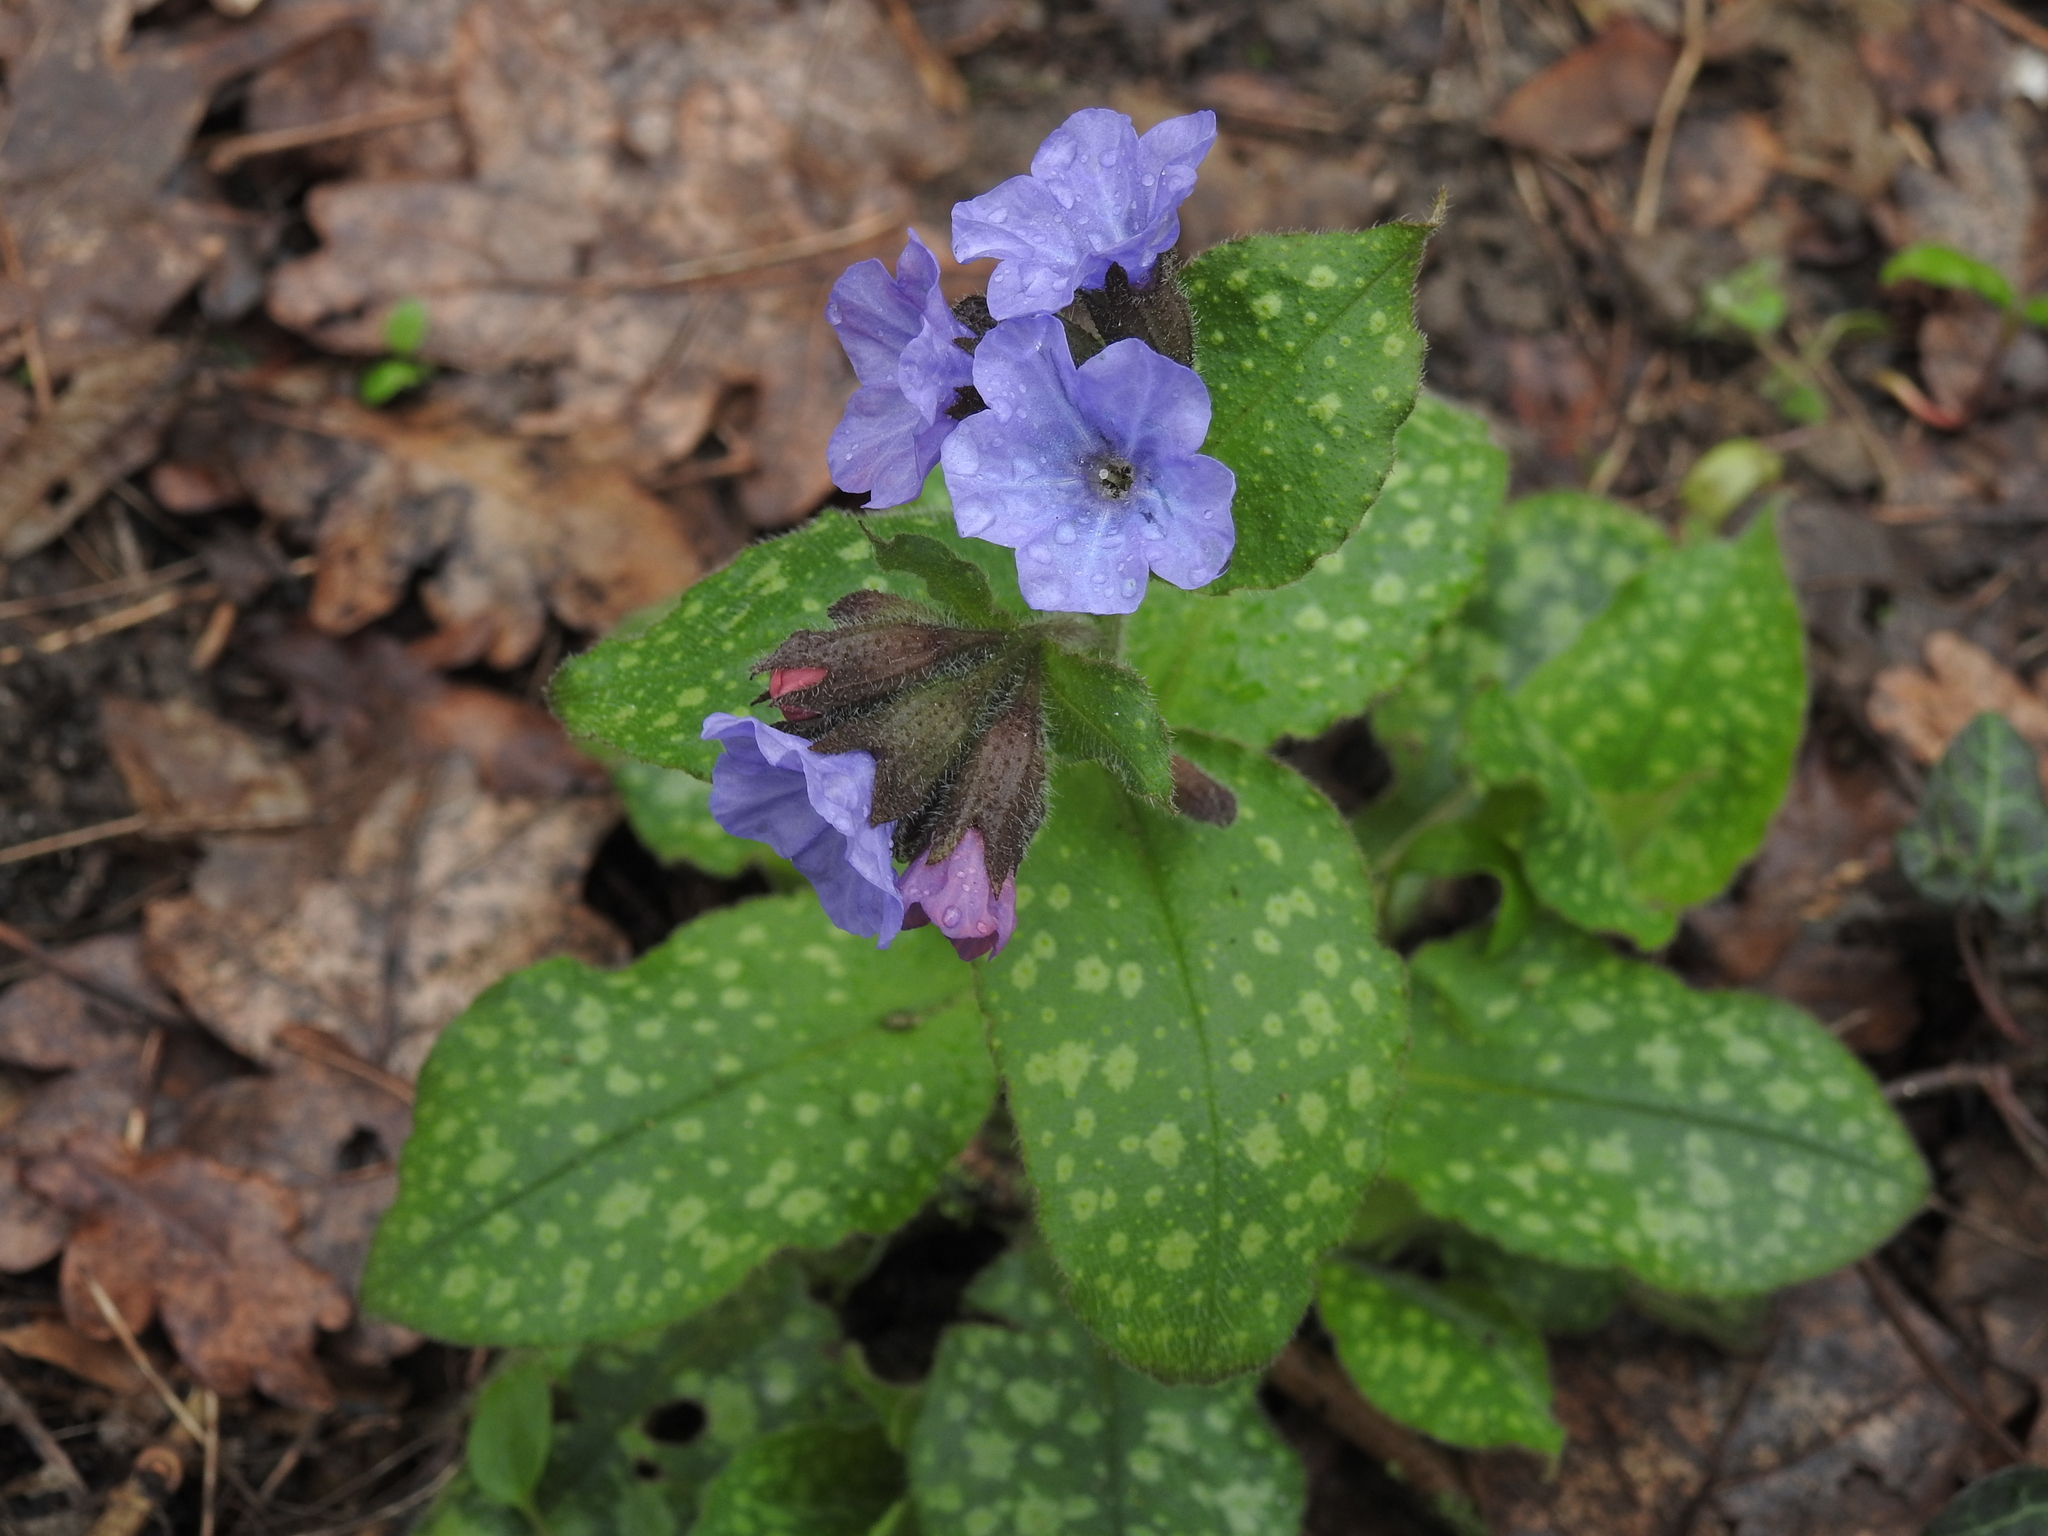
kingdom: Plantae
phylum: Tracheophyta
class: Magnoliopsida
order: Boraginales
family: Boraginaceae
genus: Pulmonaria
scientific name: Pulmonaria officinalis
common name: Lungwort
